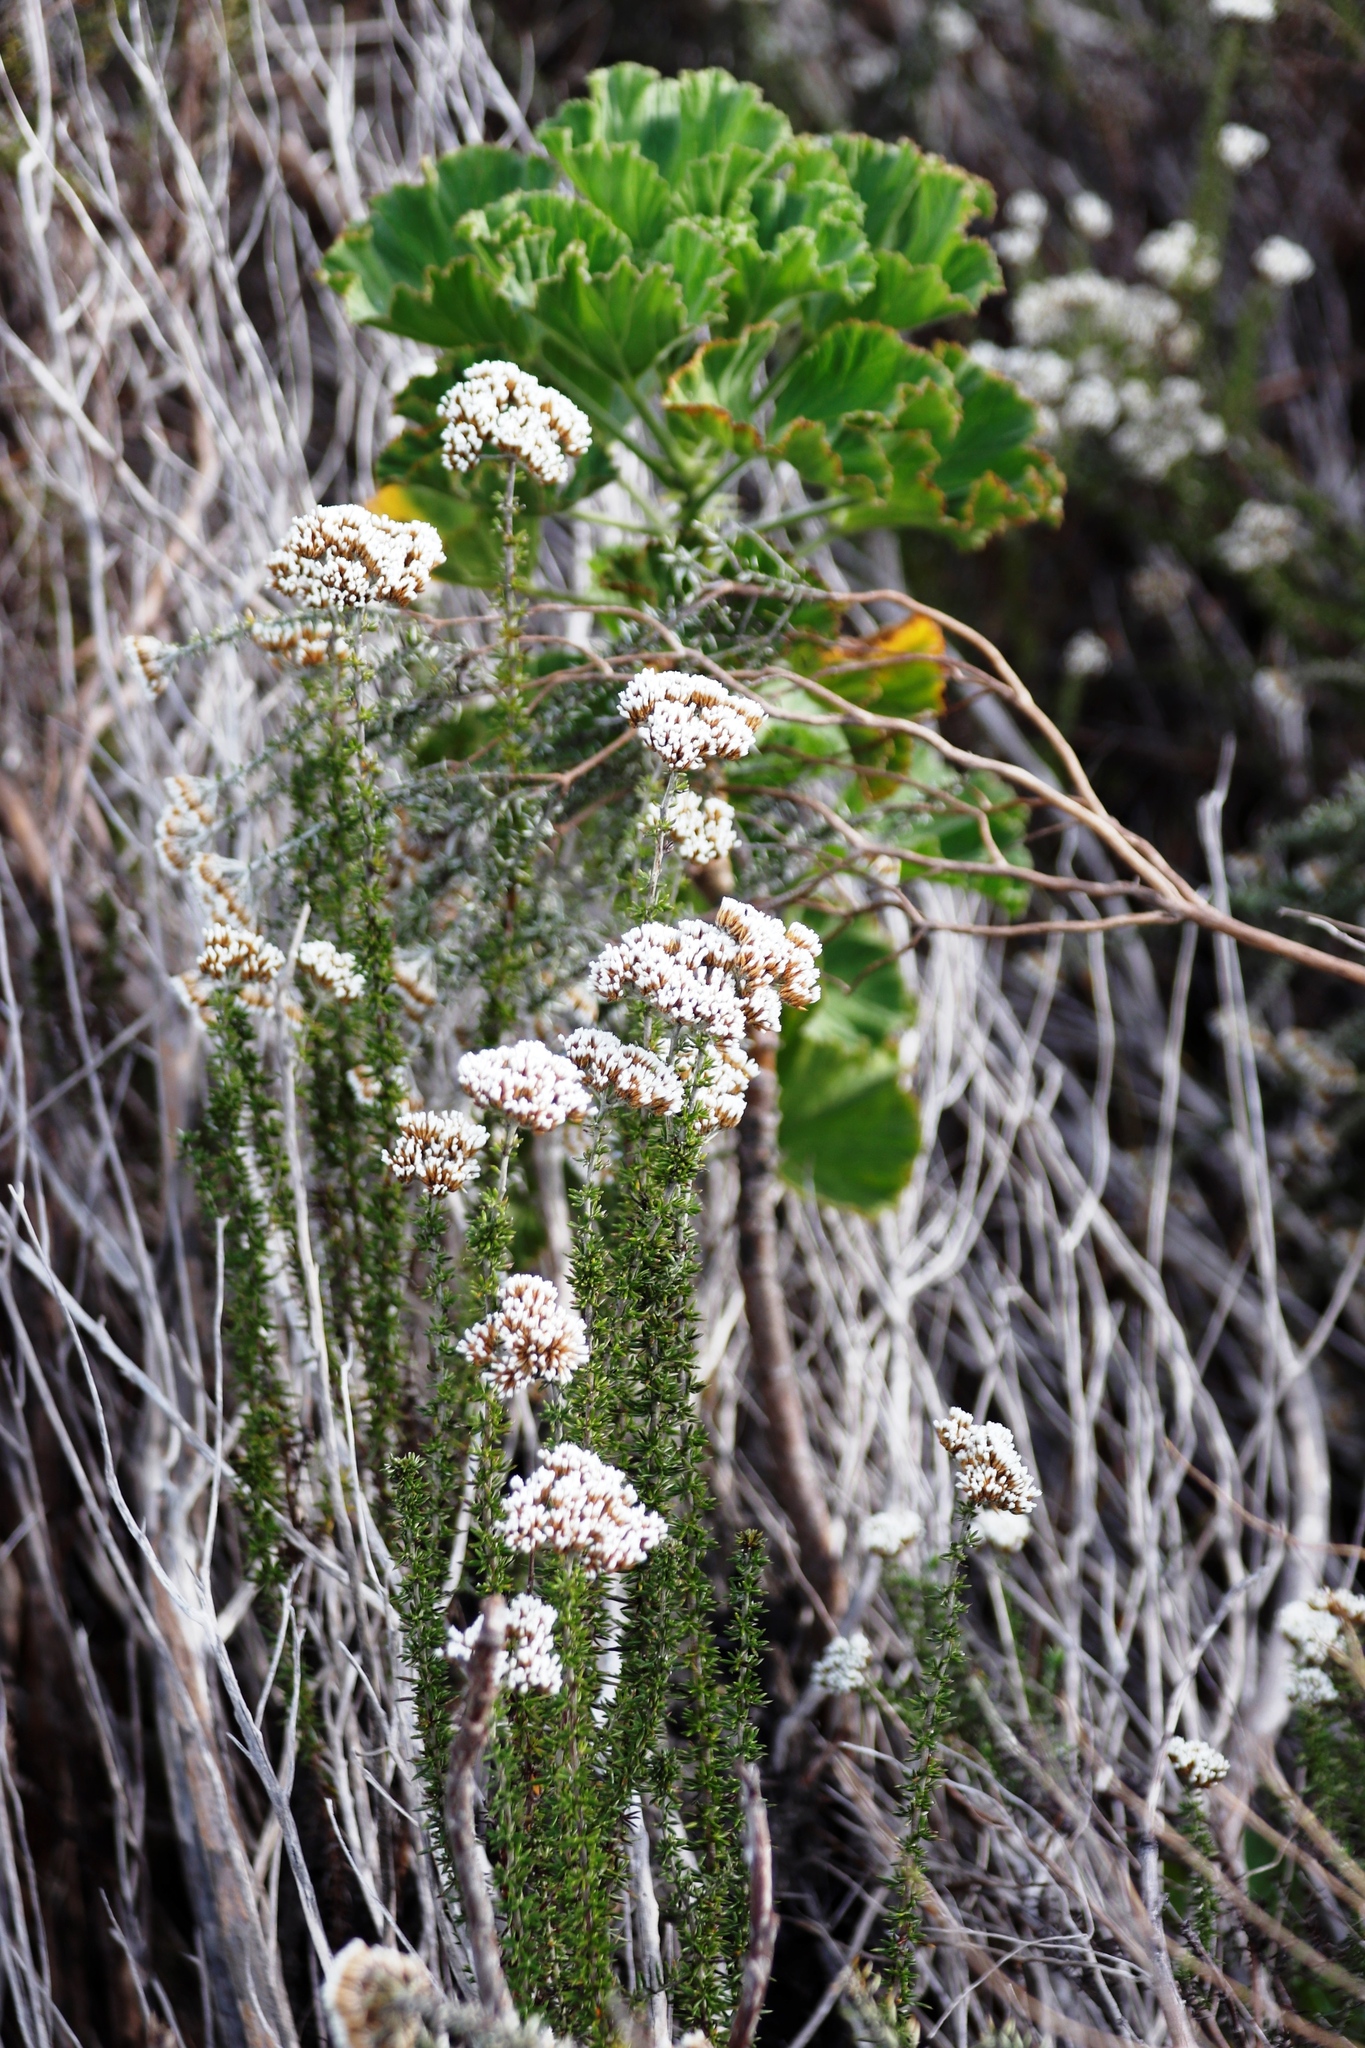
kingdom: Plantae
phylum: Tracheophyta
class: Magnoliopsida
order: Geraniales
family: Geraniaceae
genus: Pelargonium
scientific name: Pelargonium cucullatum
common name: Tree pelargonium
